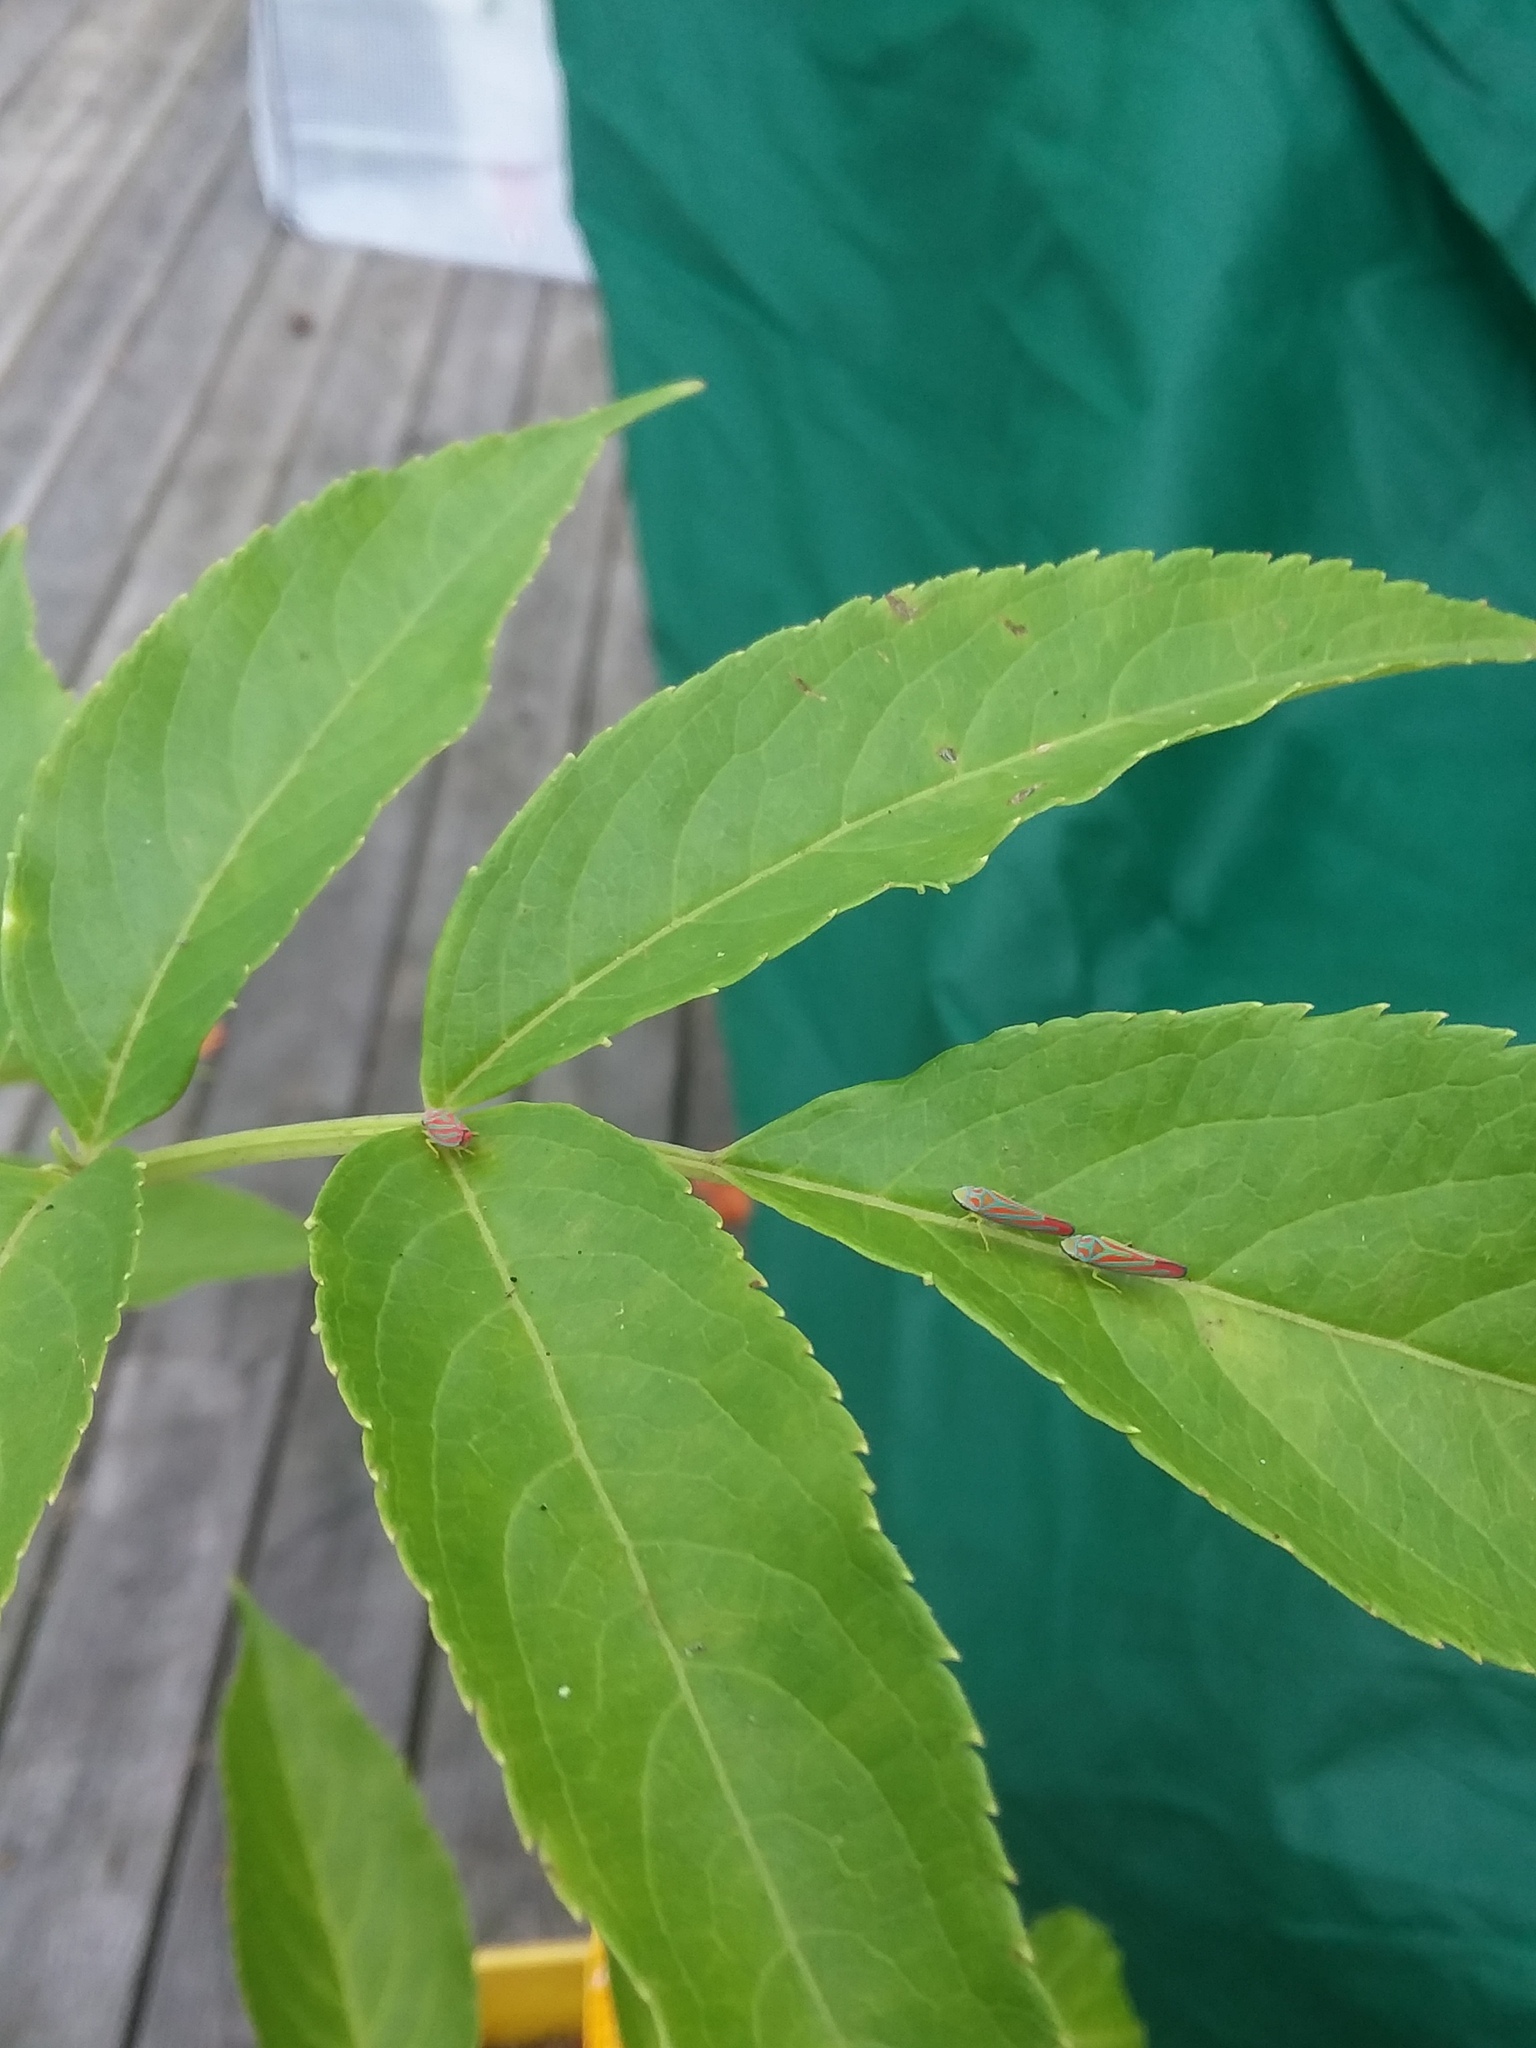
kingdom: Animalia
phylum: Arthropoda
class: Insecta
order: Hemiptera
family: Cicadellidae
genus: Graphocephala
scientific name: Graphocephala coccinea
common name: Candy-striped leafhopper
